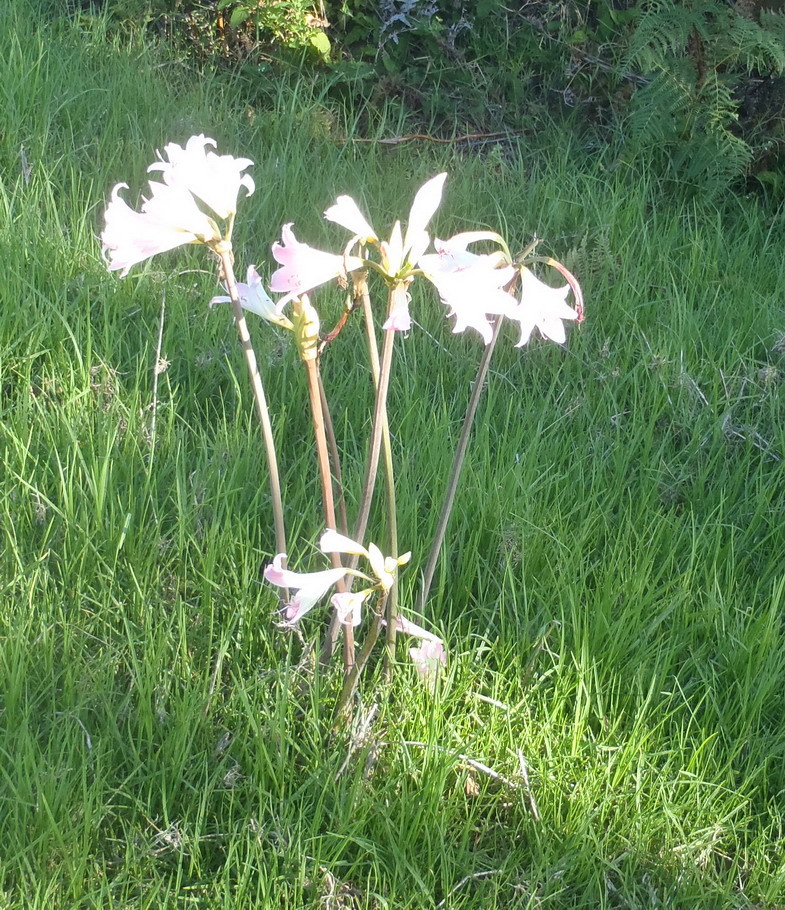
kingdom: Plantae
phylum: Tracheophyta
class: Liliopsida
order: Asparagales
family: Amaryllidaceae
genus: Amaryllis
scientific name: Amaryllis belladonna
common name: Jersey lily
